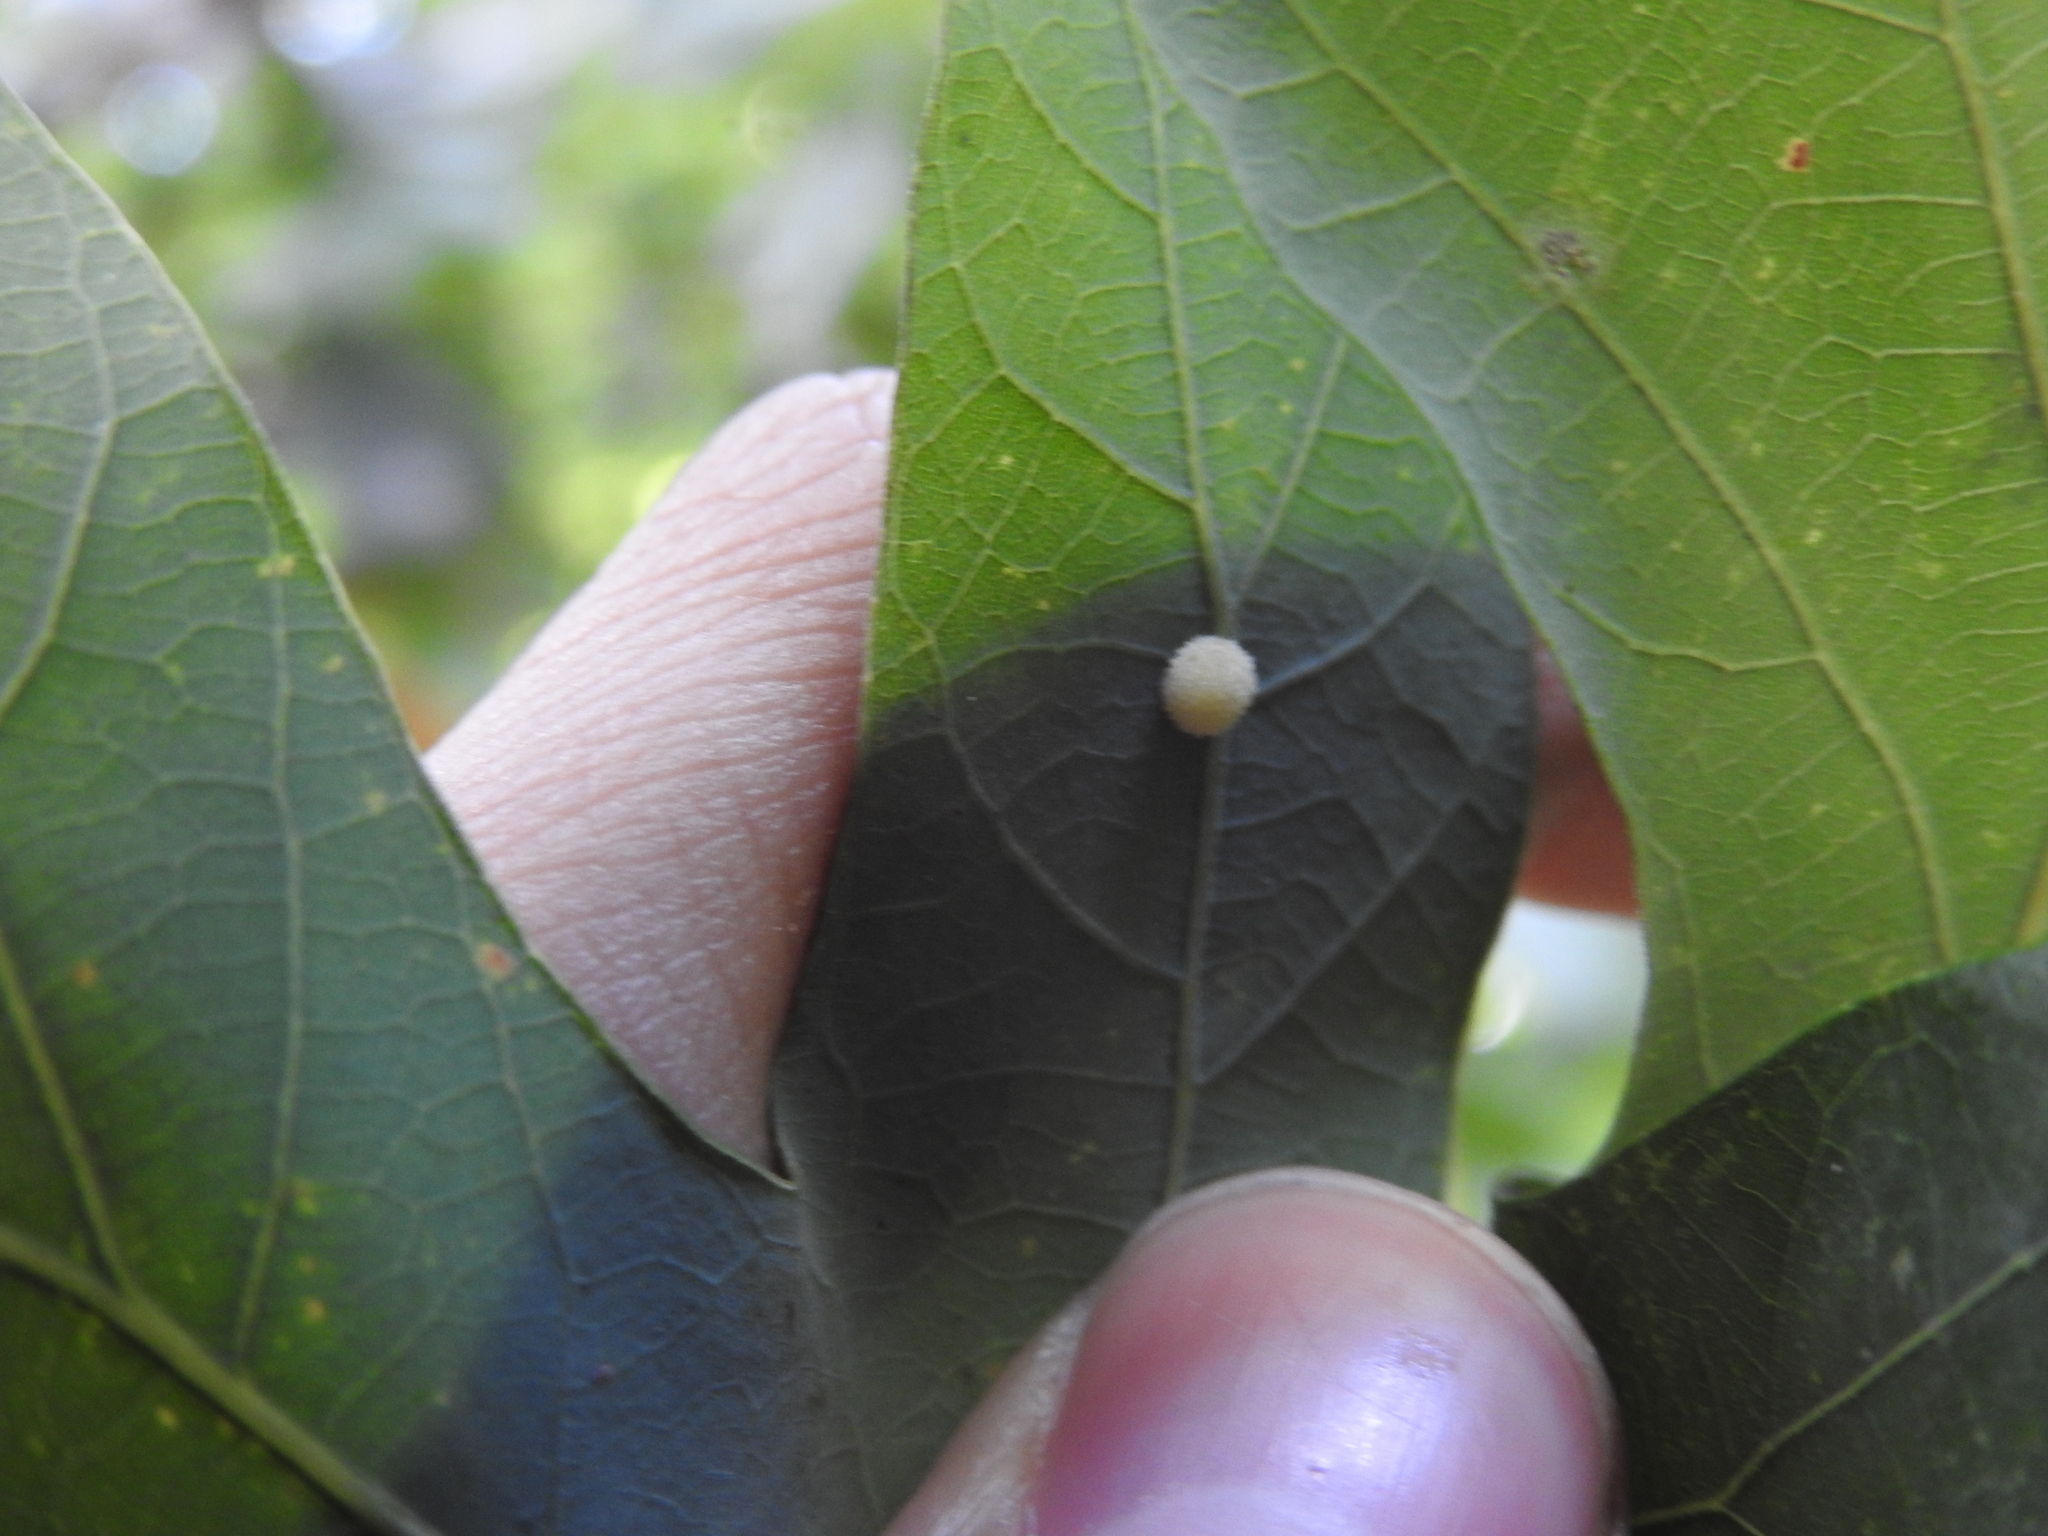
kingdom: Animalia
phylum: Arthropoda
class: Insecta
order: Hymenoptera
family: Cynipidae
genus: Philonix
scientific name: Philonix fulvicollis
